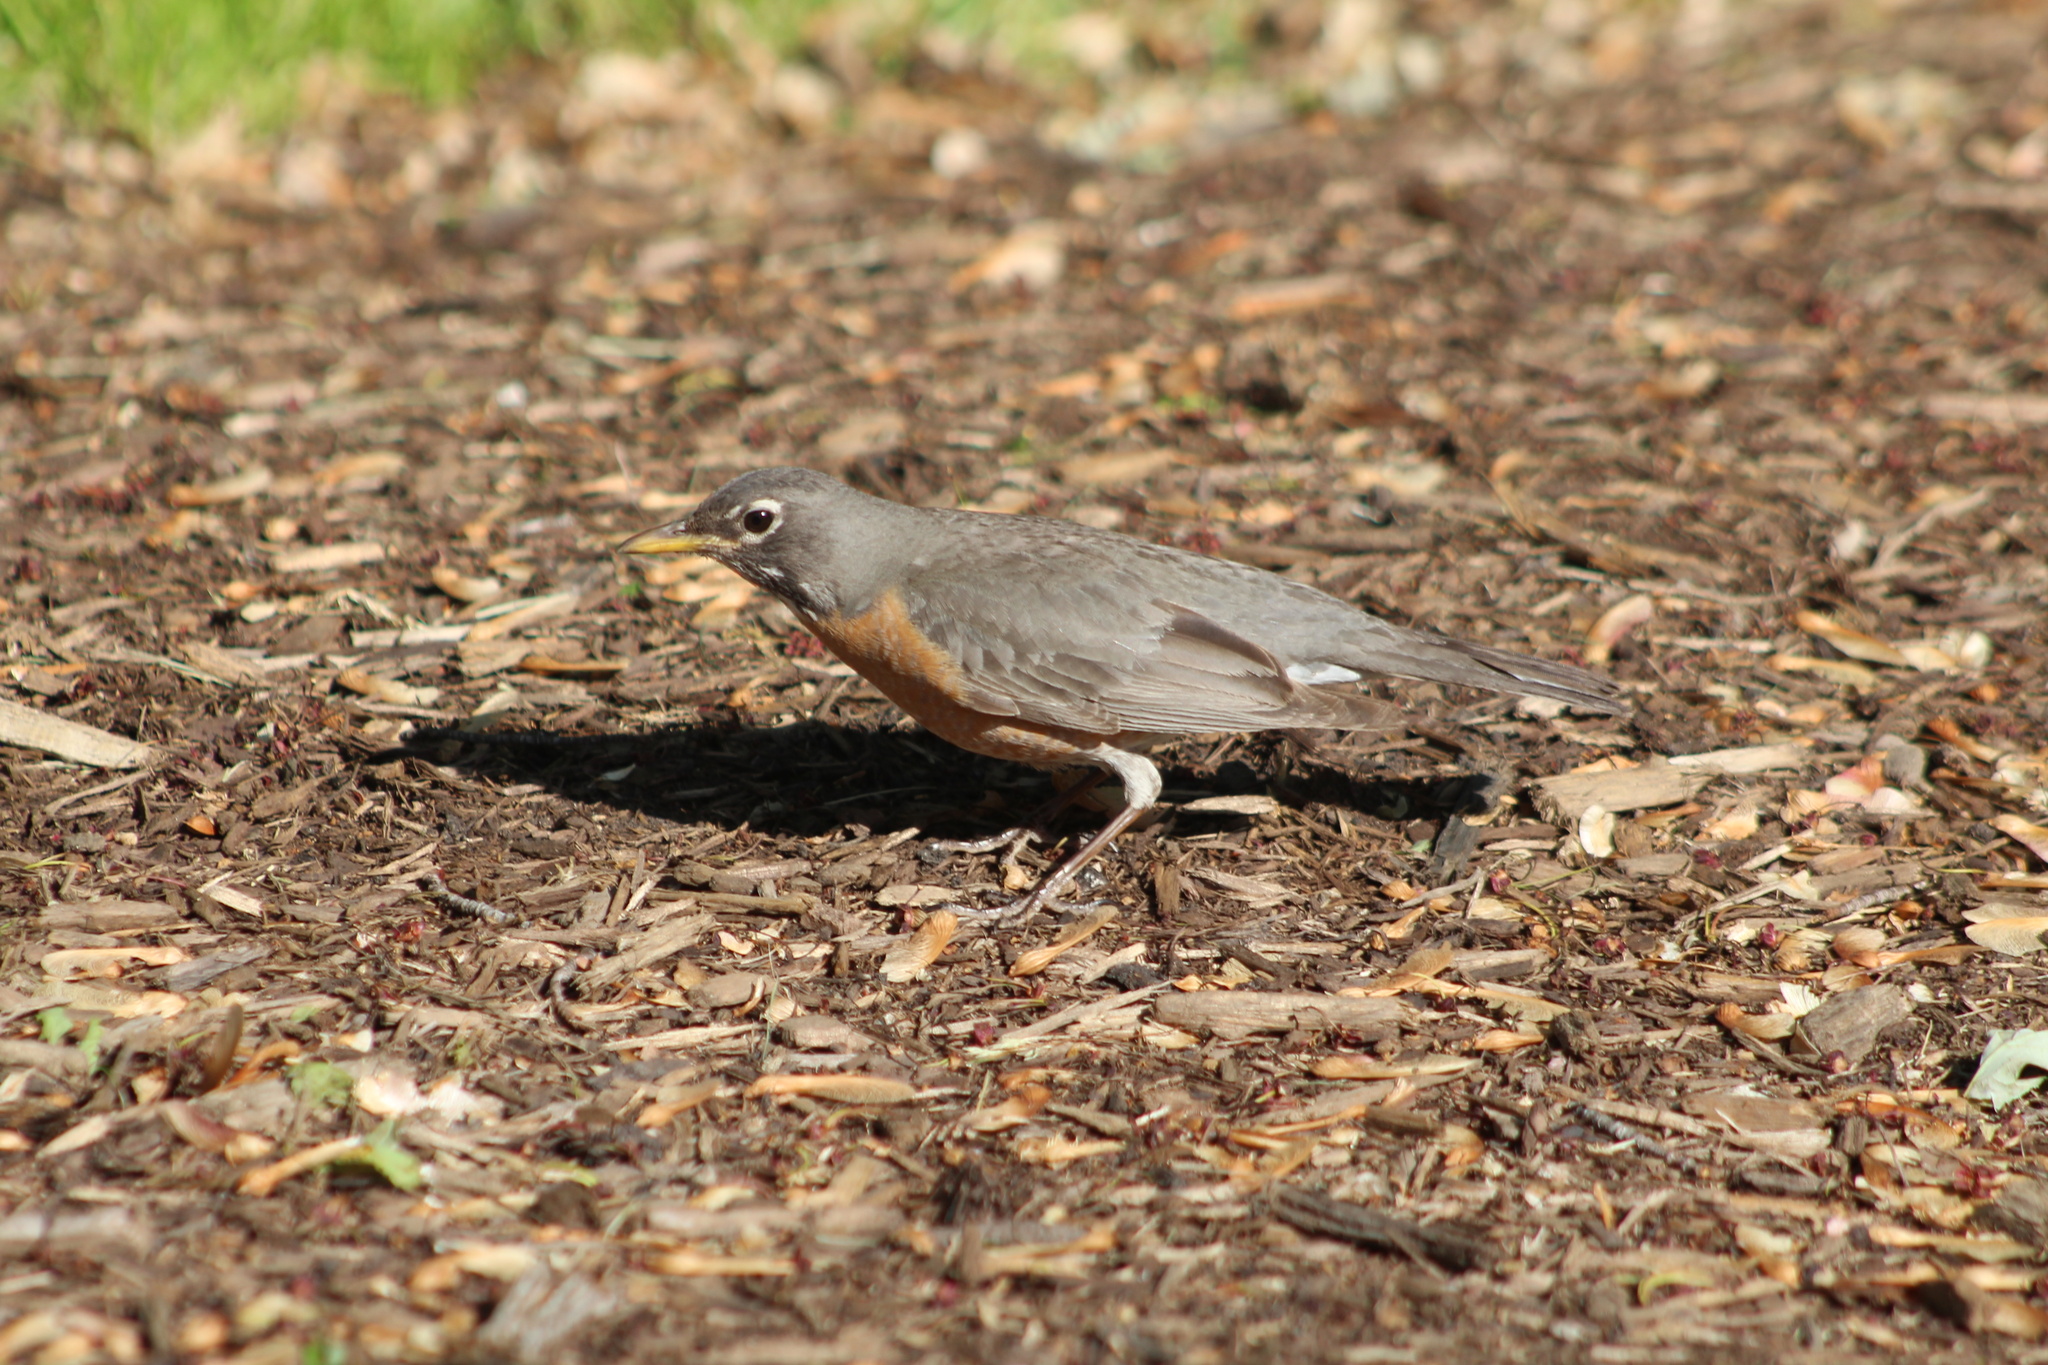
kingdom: Animalia
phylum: Chordata
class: Aves
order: Passeriformes
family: Turdidae
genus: Turdus
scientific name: Turdus migratorius
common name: American robin
